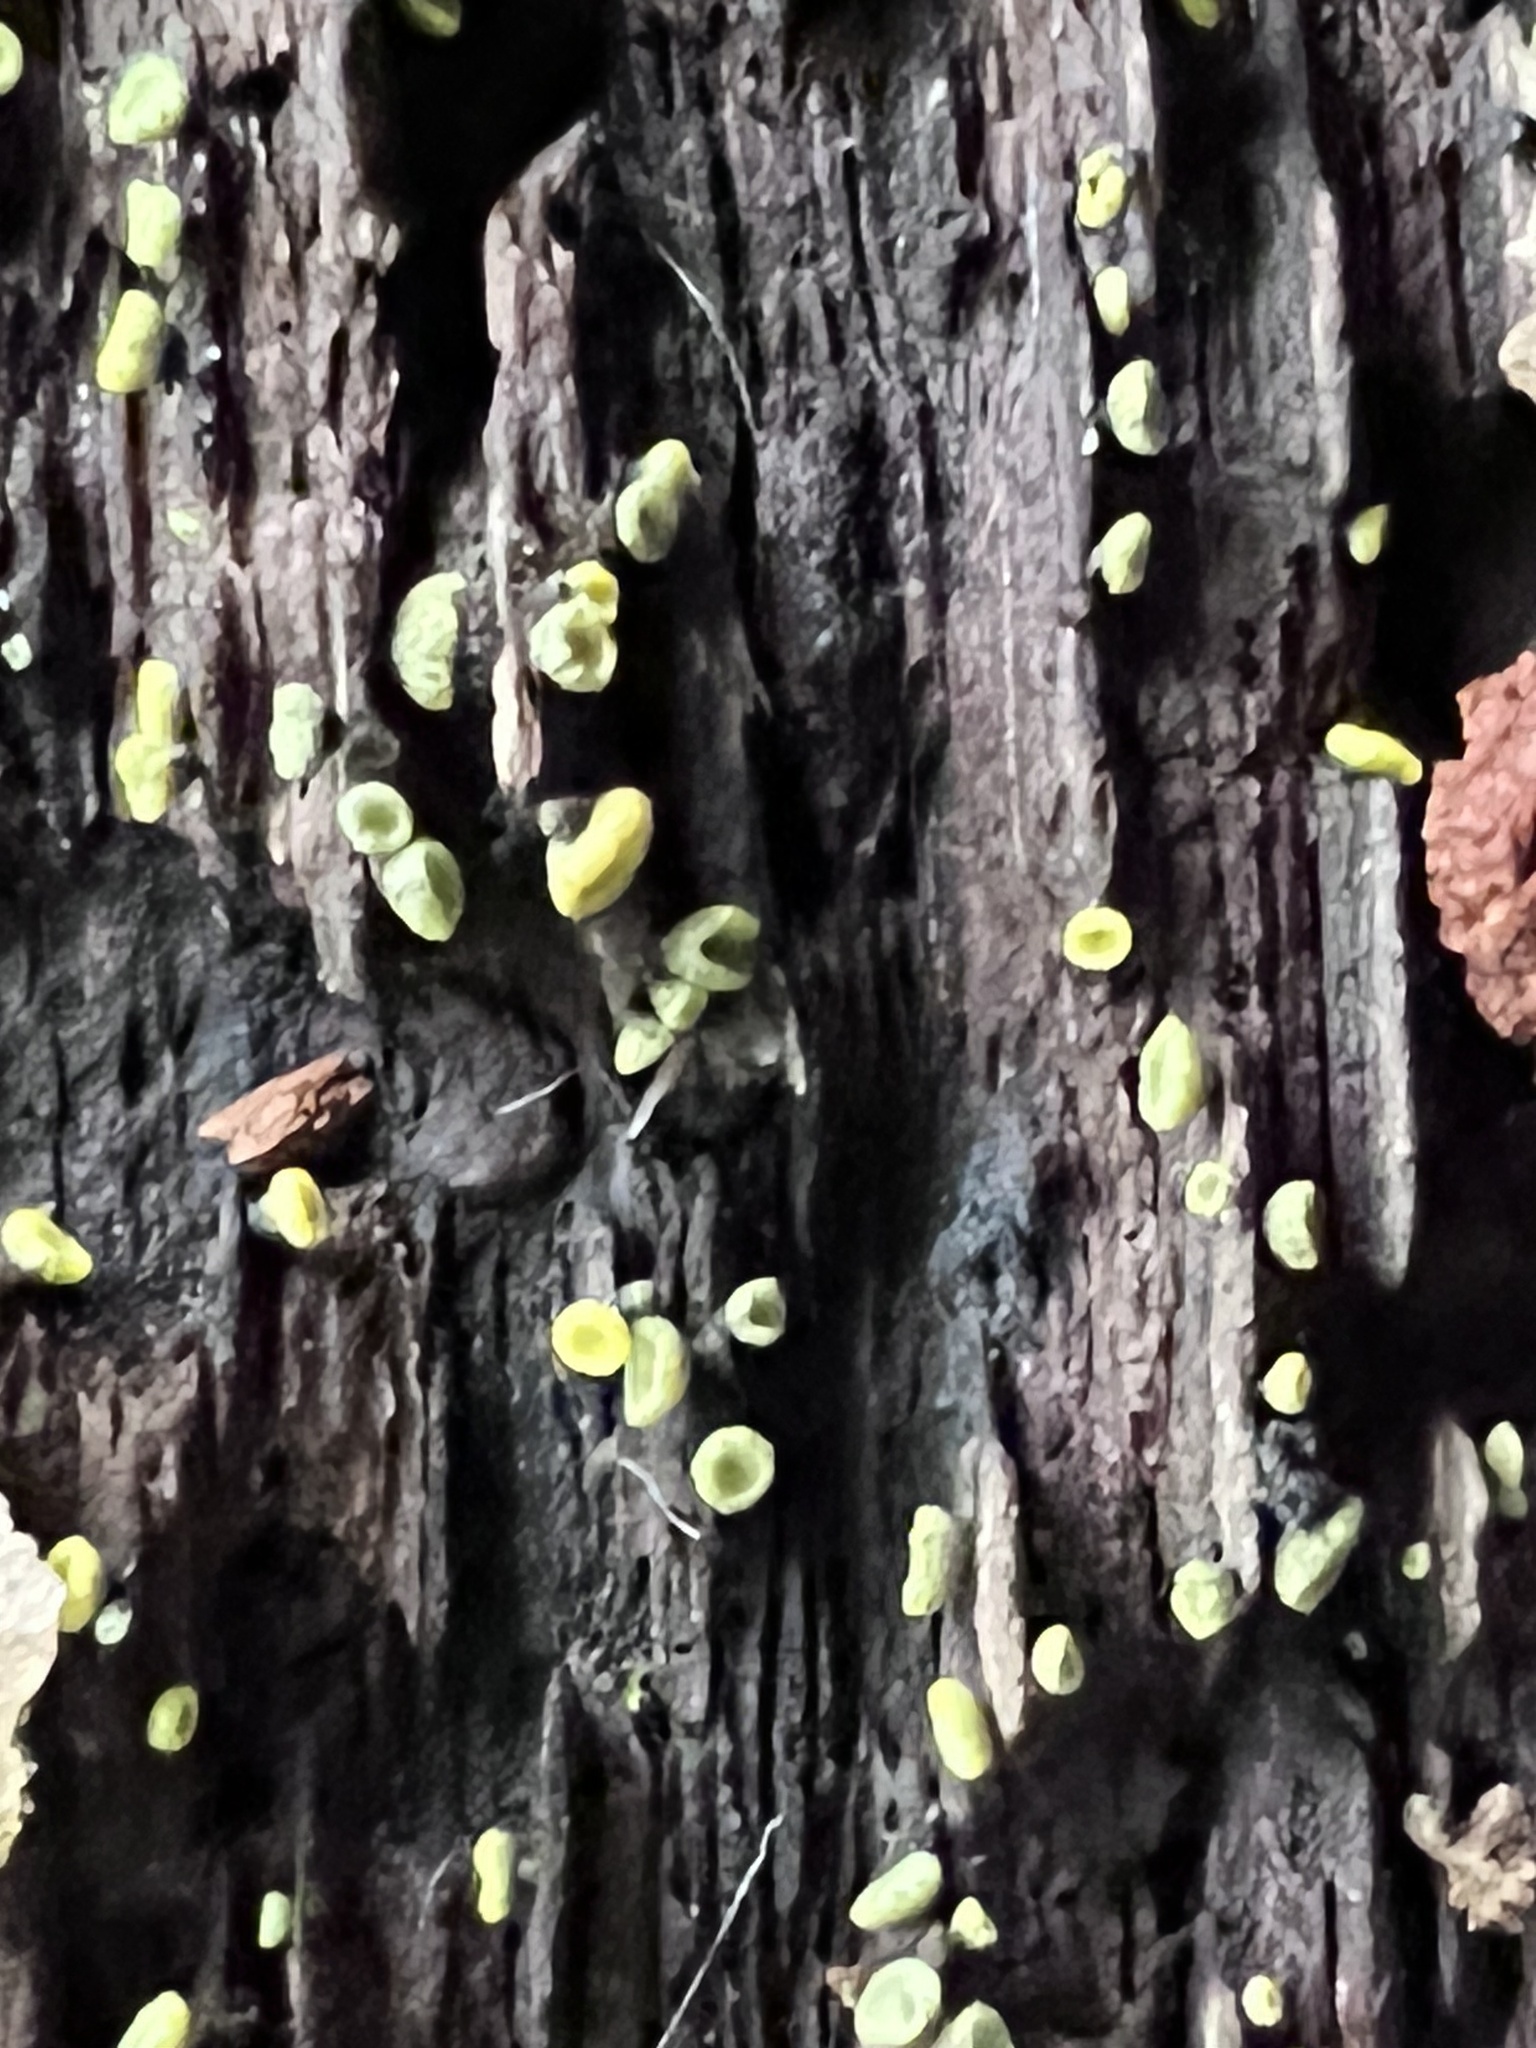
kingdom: Fungi
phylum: Ascomycota
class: Leotiomycetes
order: Helotiales
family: Chlorospleniaceae
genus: Chlorosplenium
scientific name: Chlorosplenium chlora
